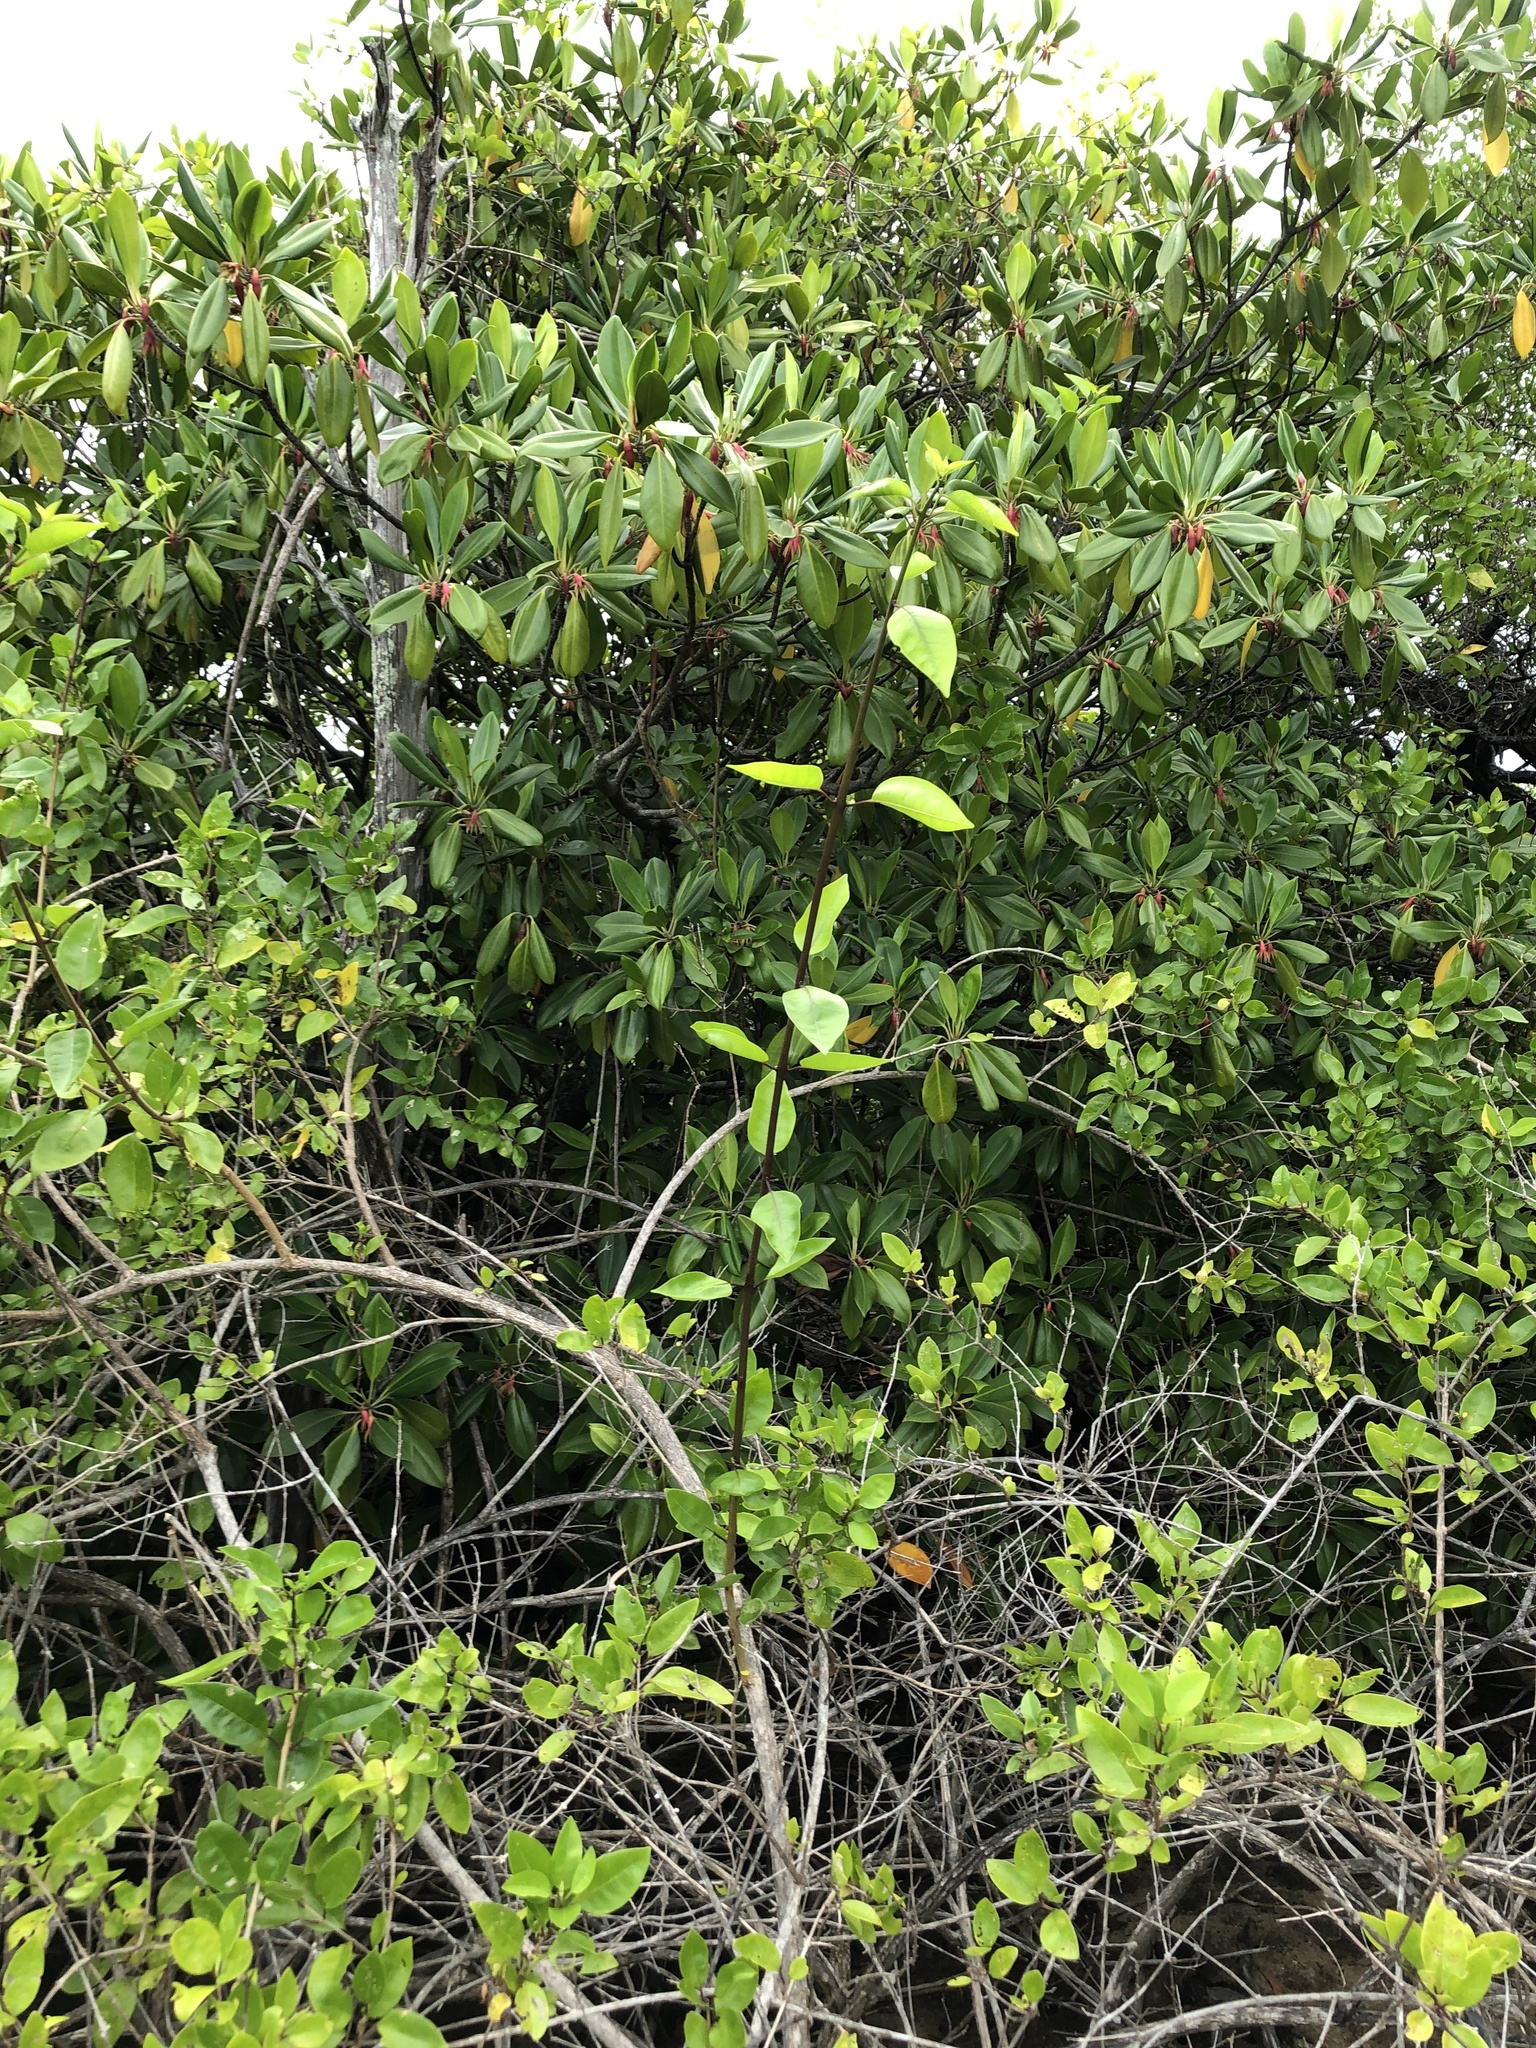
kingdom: Plantae
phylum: Tracheophyta
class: Magnoliopsida
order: Lamiales
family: Lamiaceae
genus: Volkameria
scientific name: Volkameria inermis
